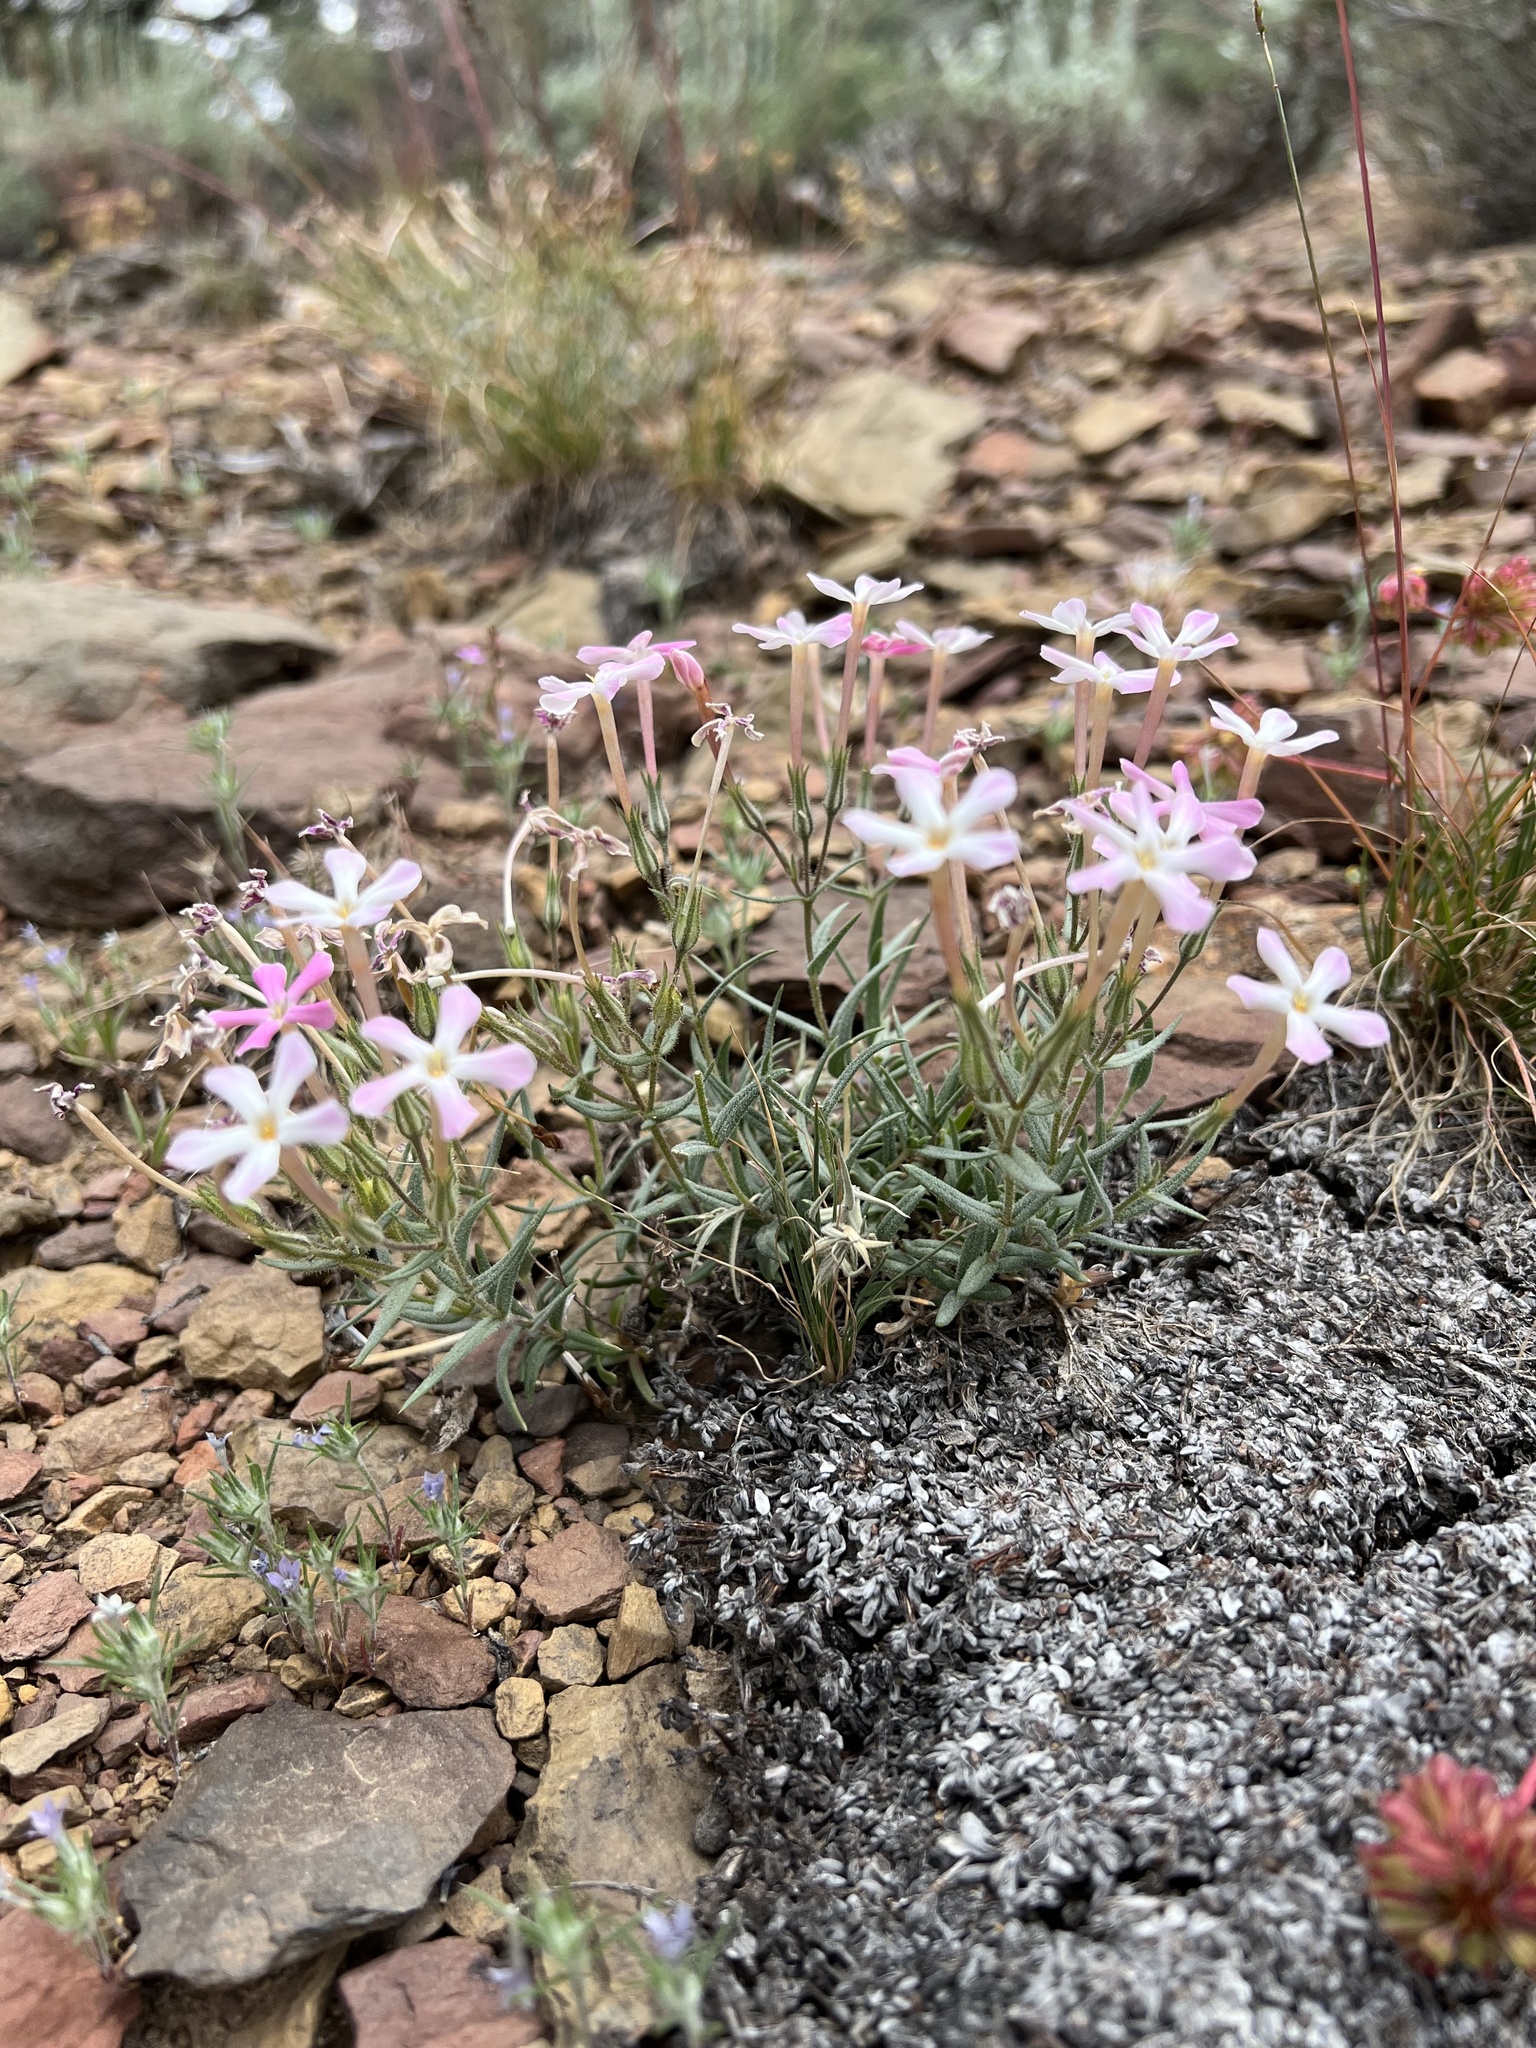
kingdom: Plantae
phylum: Tracheophyta
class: Magnoliopsida
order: Ericales
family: Polemoniaceae
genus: Phlox
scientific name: Phlox longifolia
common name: Longleaf phlox
